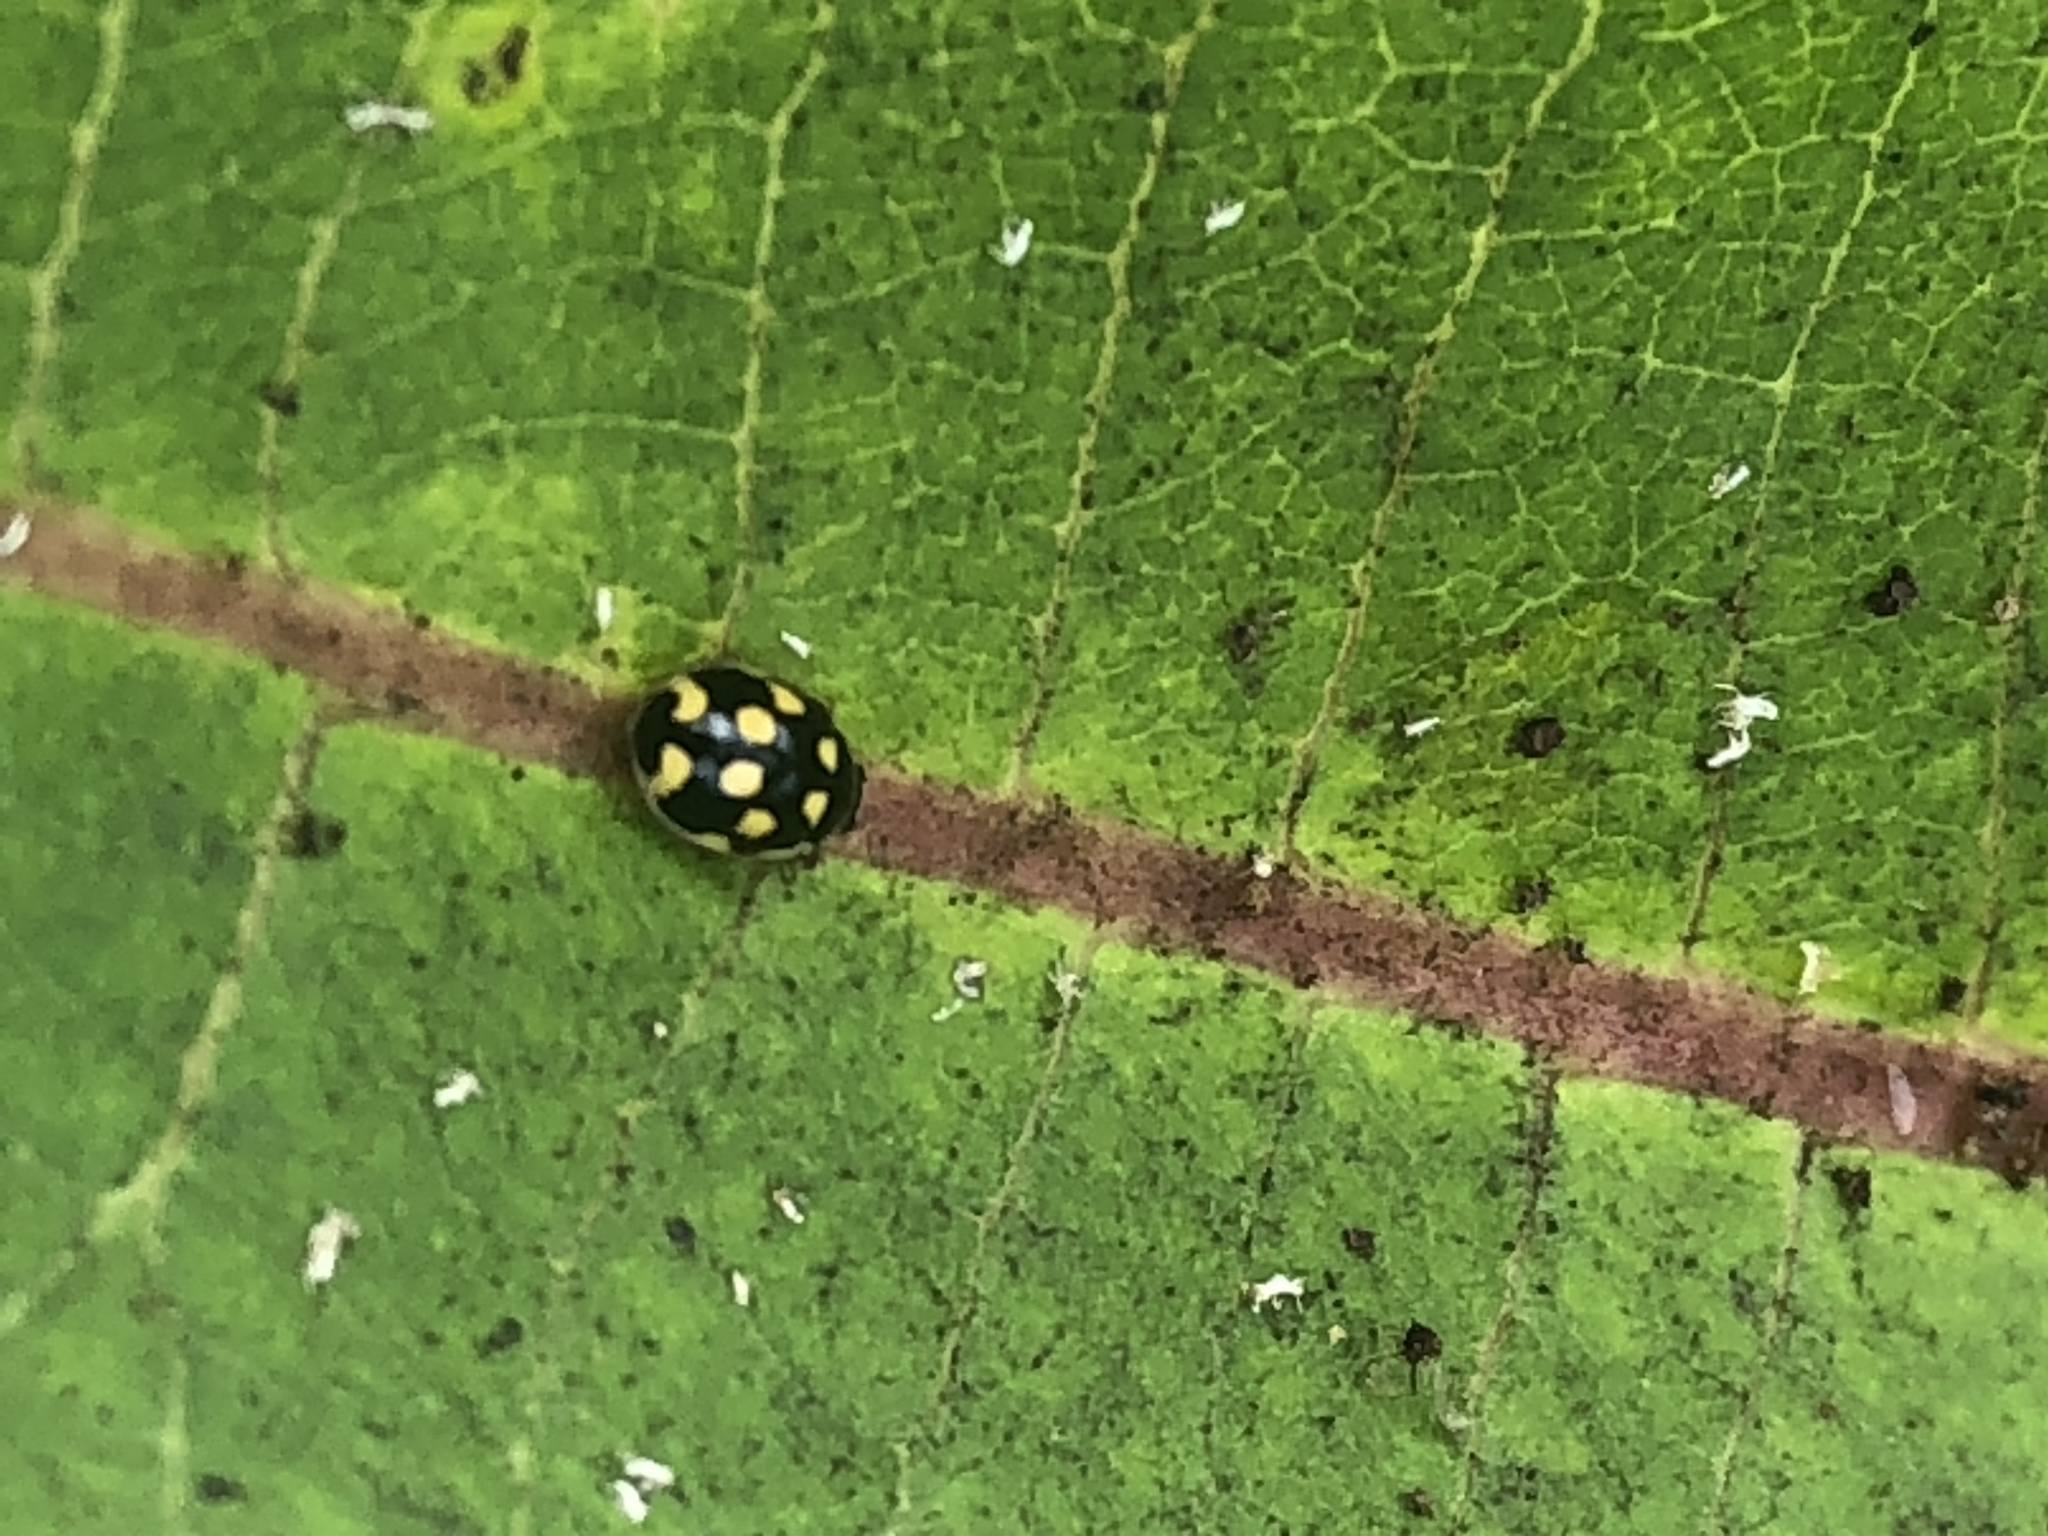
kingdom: Animalia
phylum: Arthropoda
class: Insecta
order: Coleoptera
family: Coccinellidae
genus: Propylaea
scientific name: Propylaea quatuordecimpunctata
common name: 14-spotted ladybird beetle
